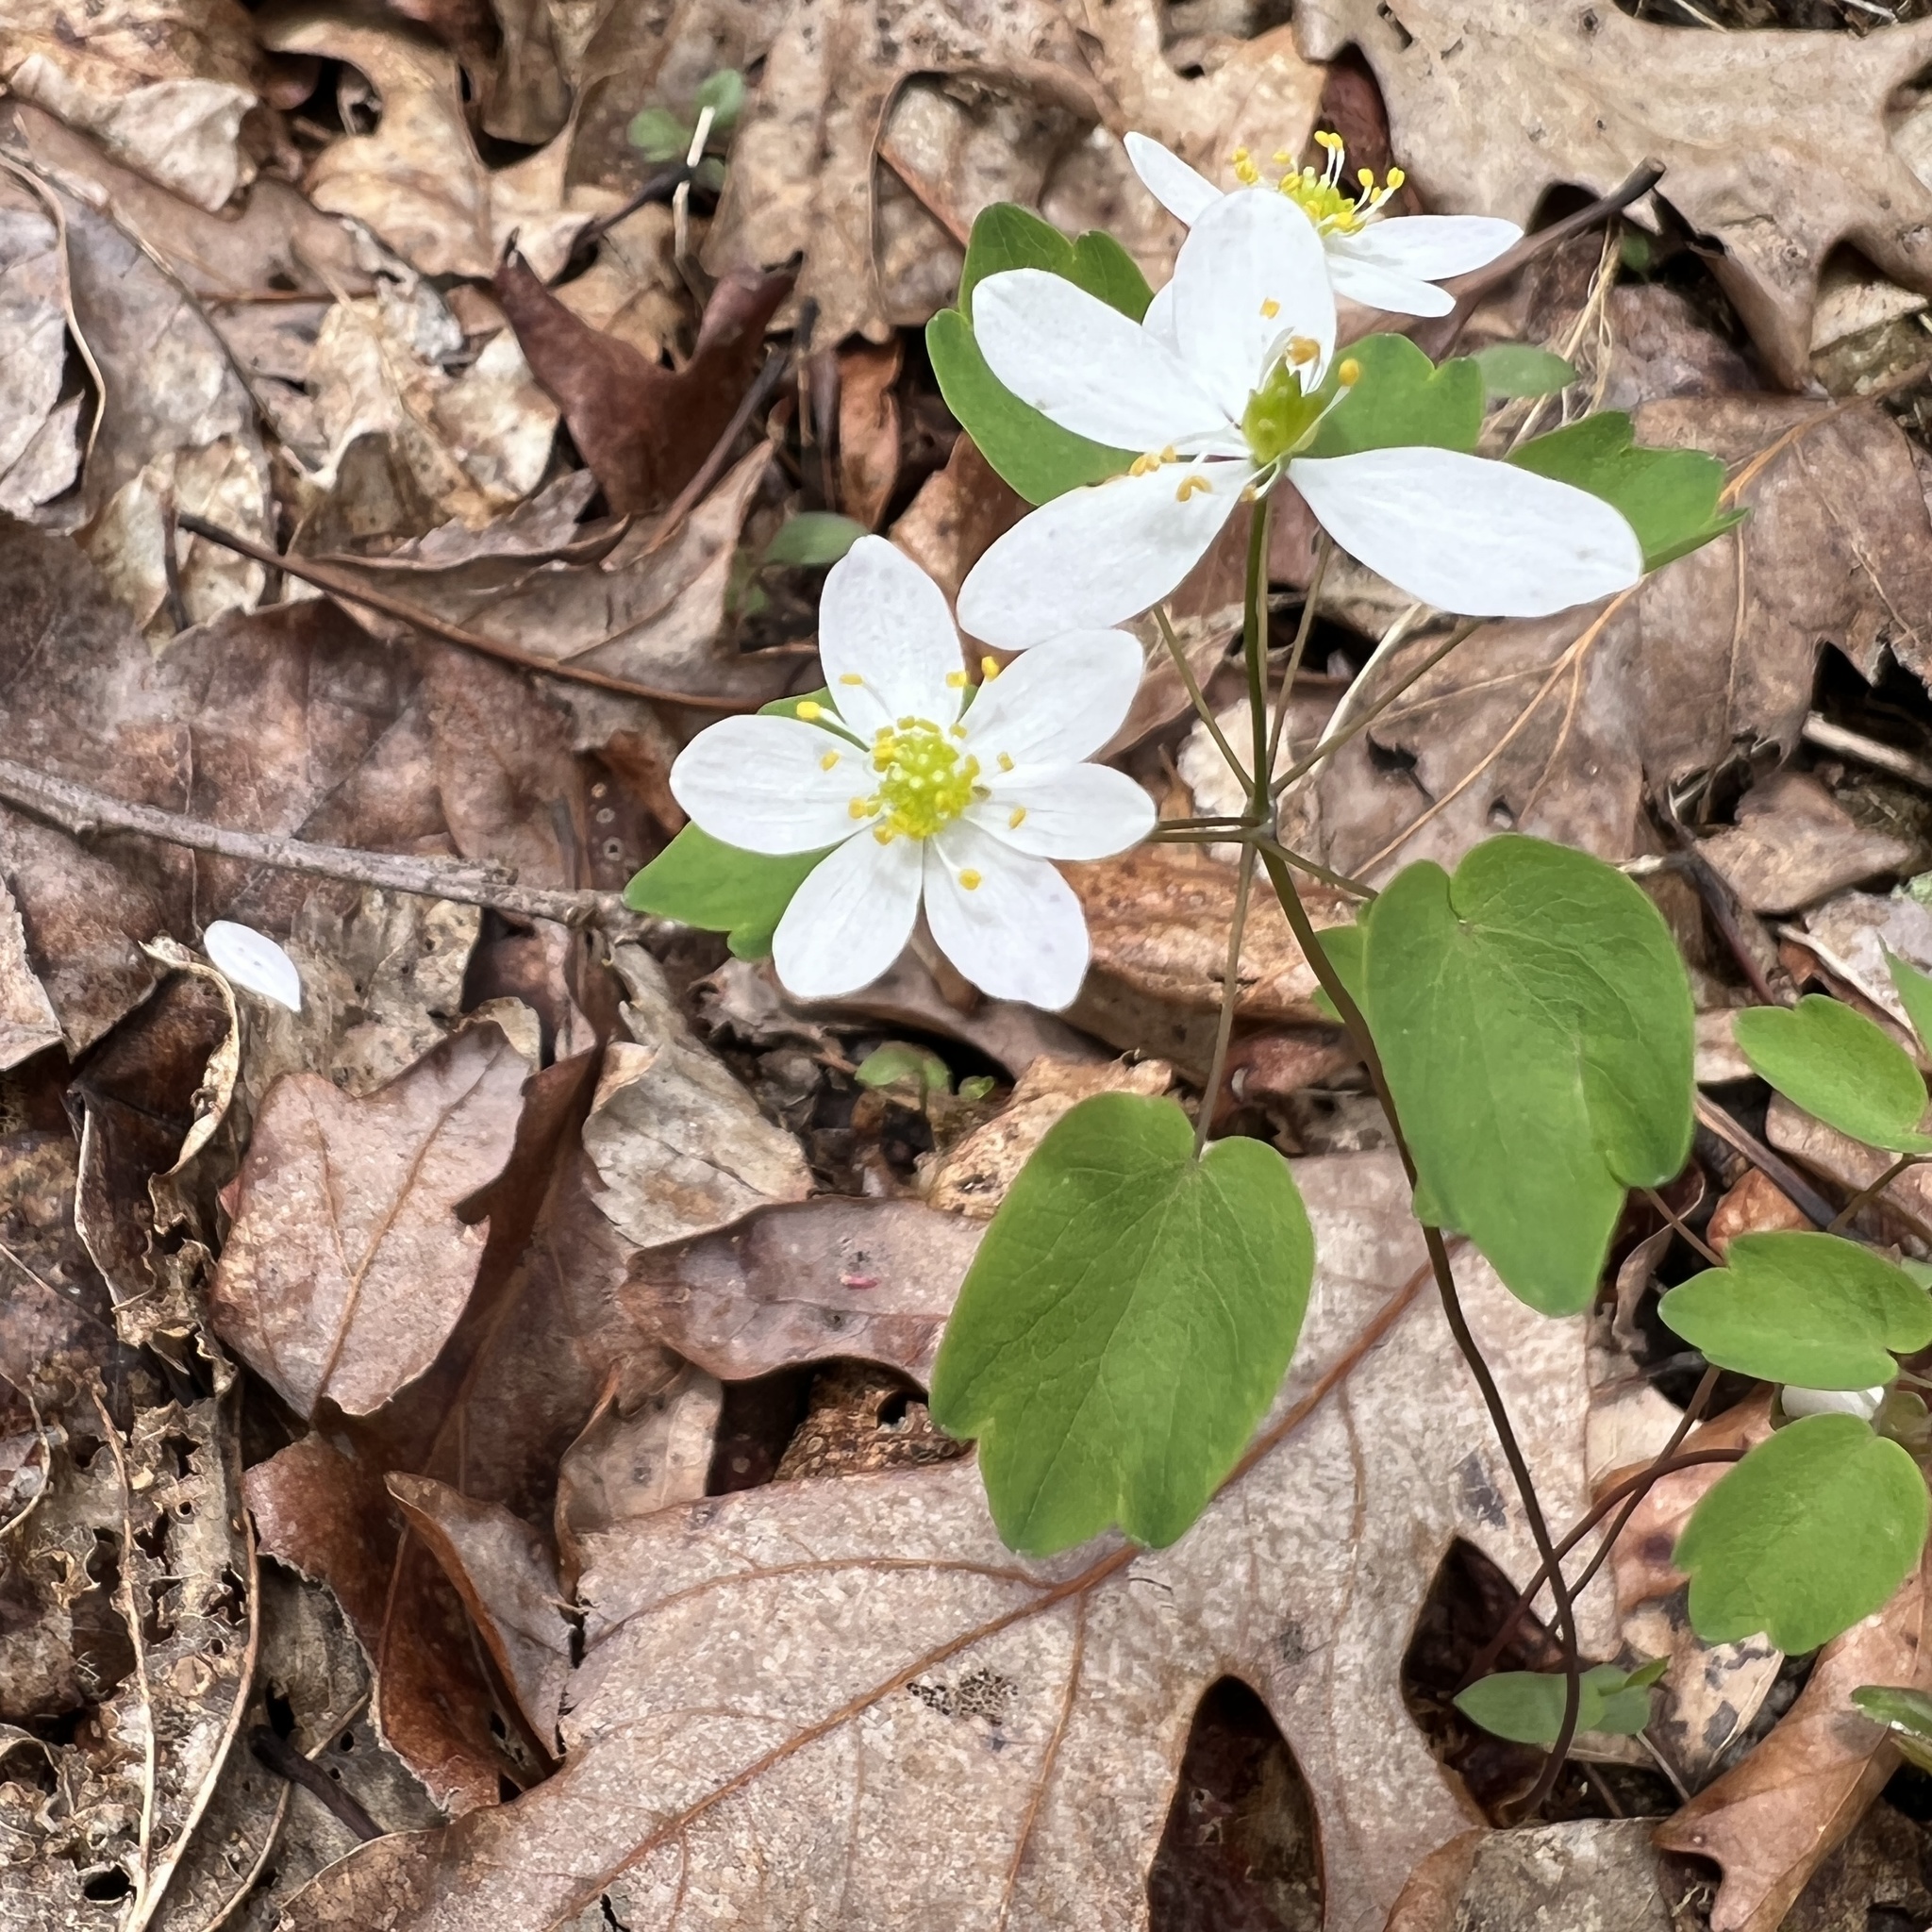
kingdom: Plantae
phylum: Tracheophyta
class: Magnoliopsida
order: Ranunculales
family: Ranunculaceae
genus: Thalictrum
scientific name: Thalictrum thalictroides
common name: Rue-anemone
